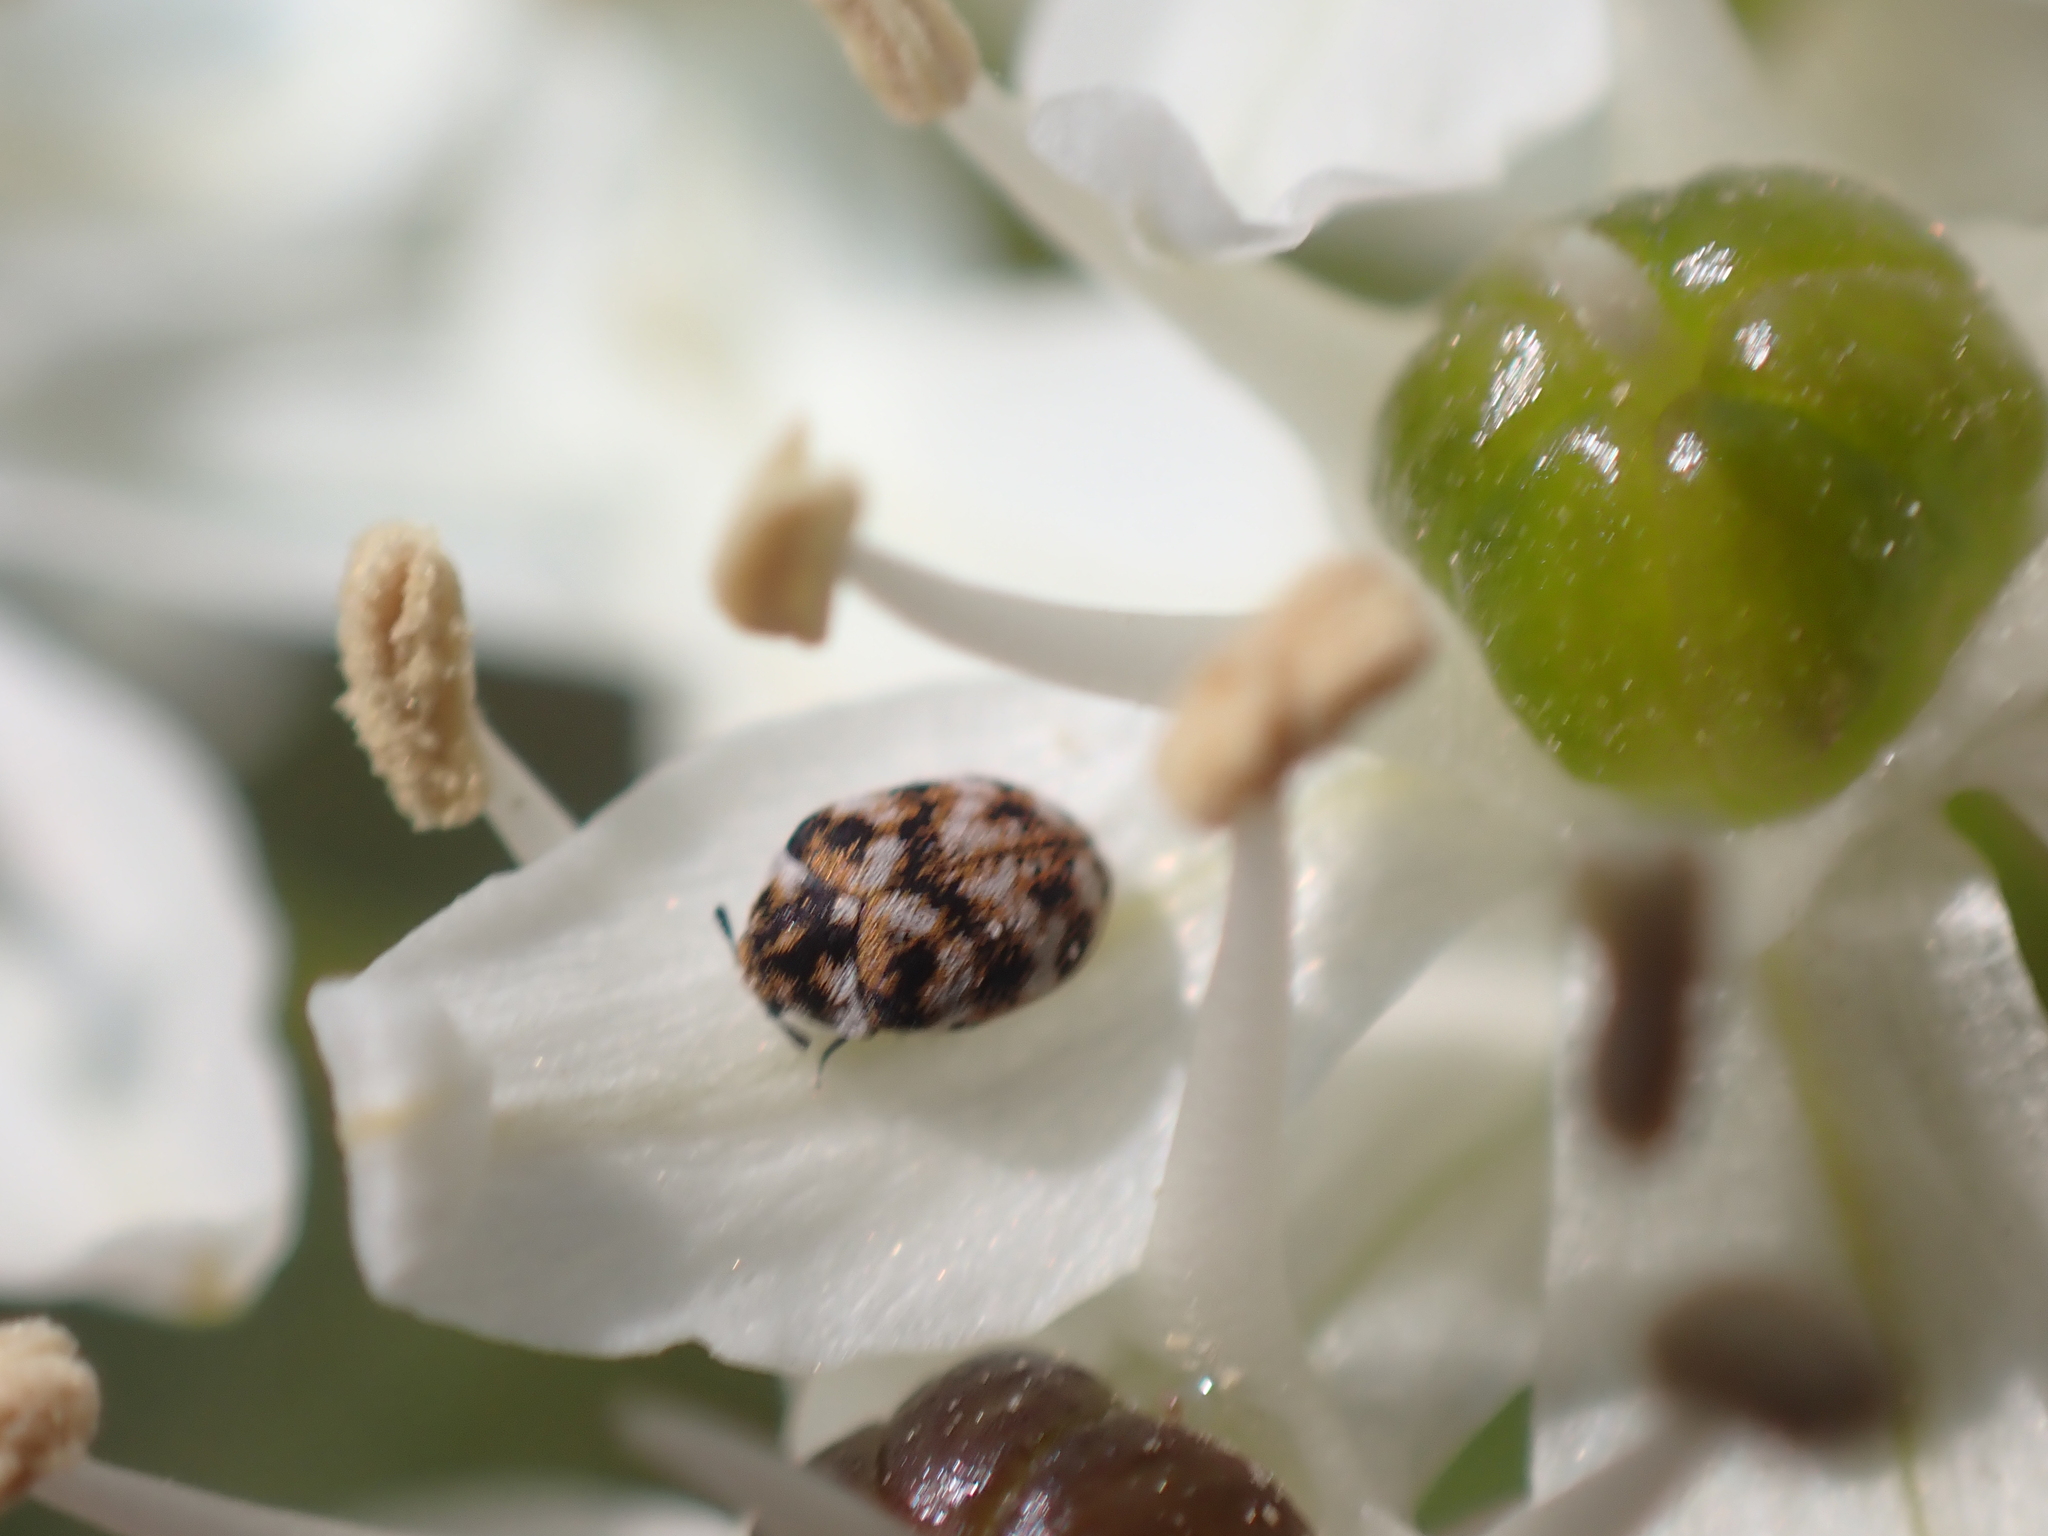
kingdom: Animalia
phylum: Arthropoda
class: Insecta
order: Coleoptera
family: Dermestidae
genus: Anthrenus
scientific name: Anthrenus verbasci
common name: Varied carpet beetle
